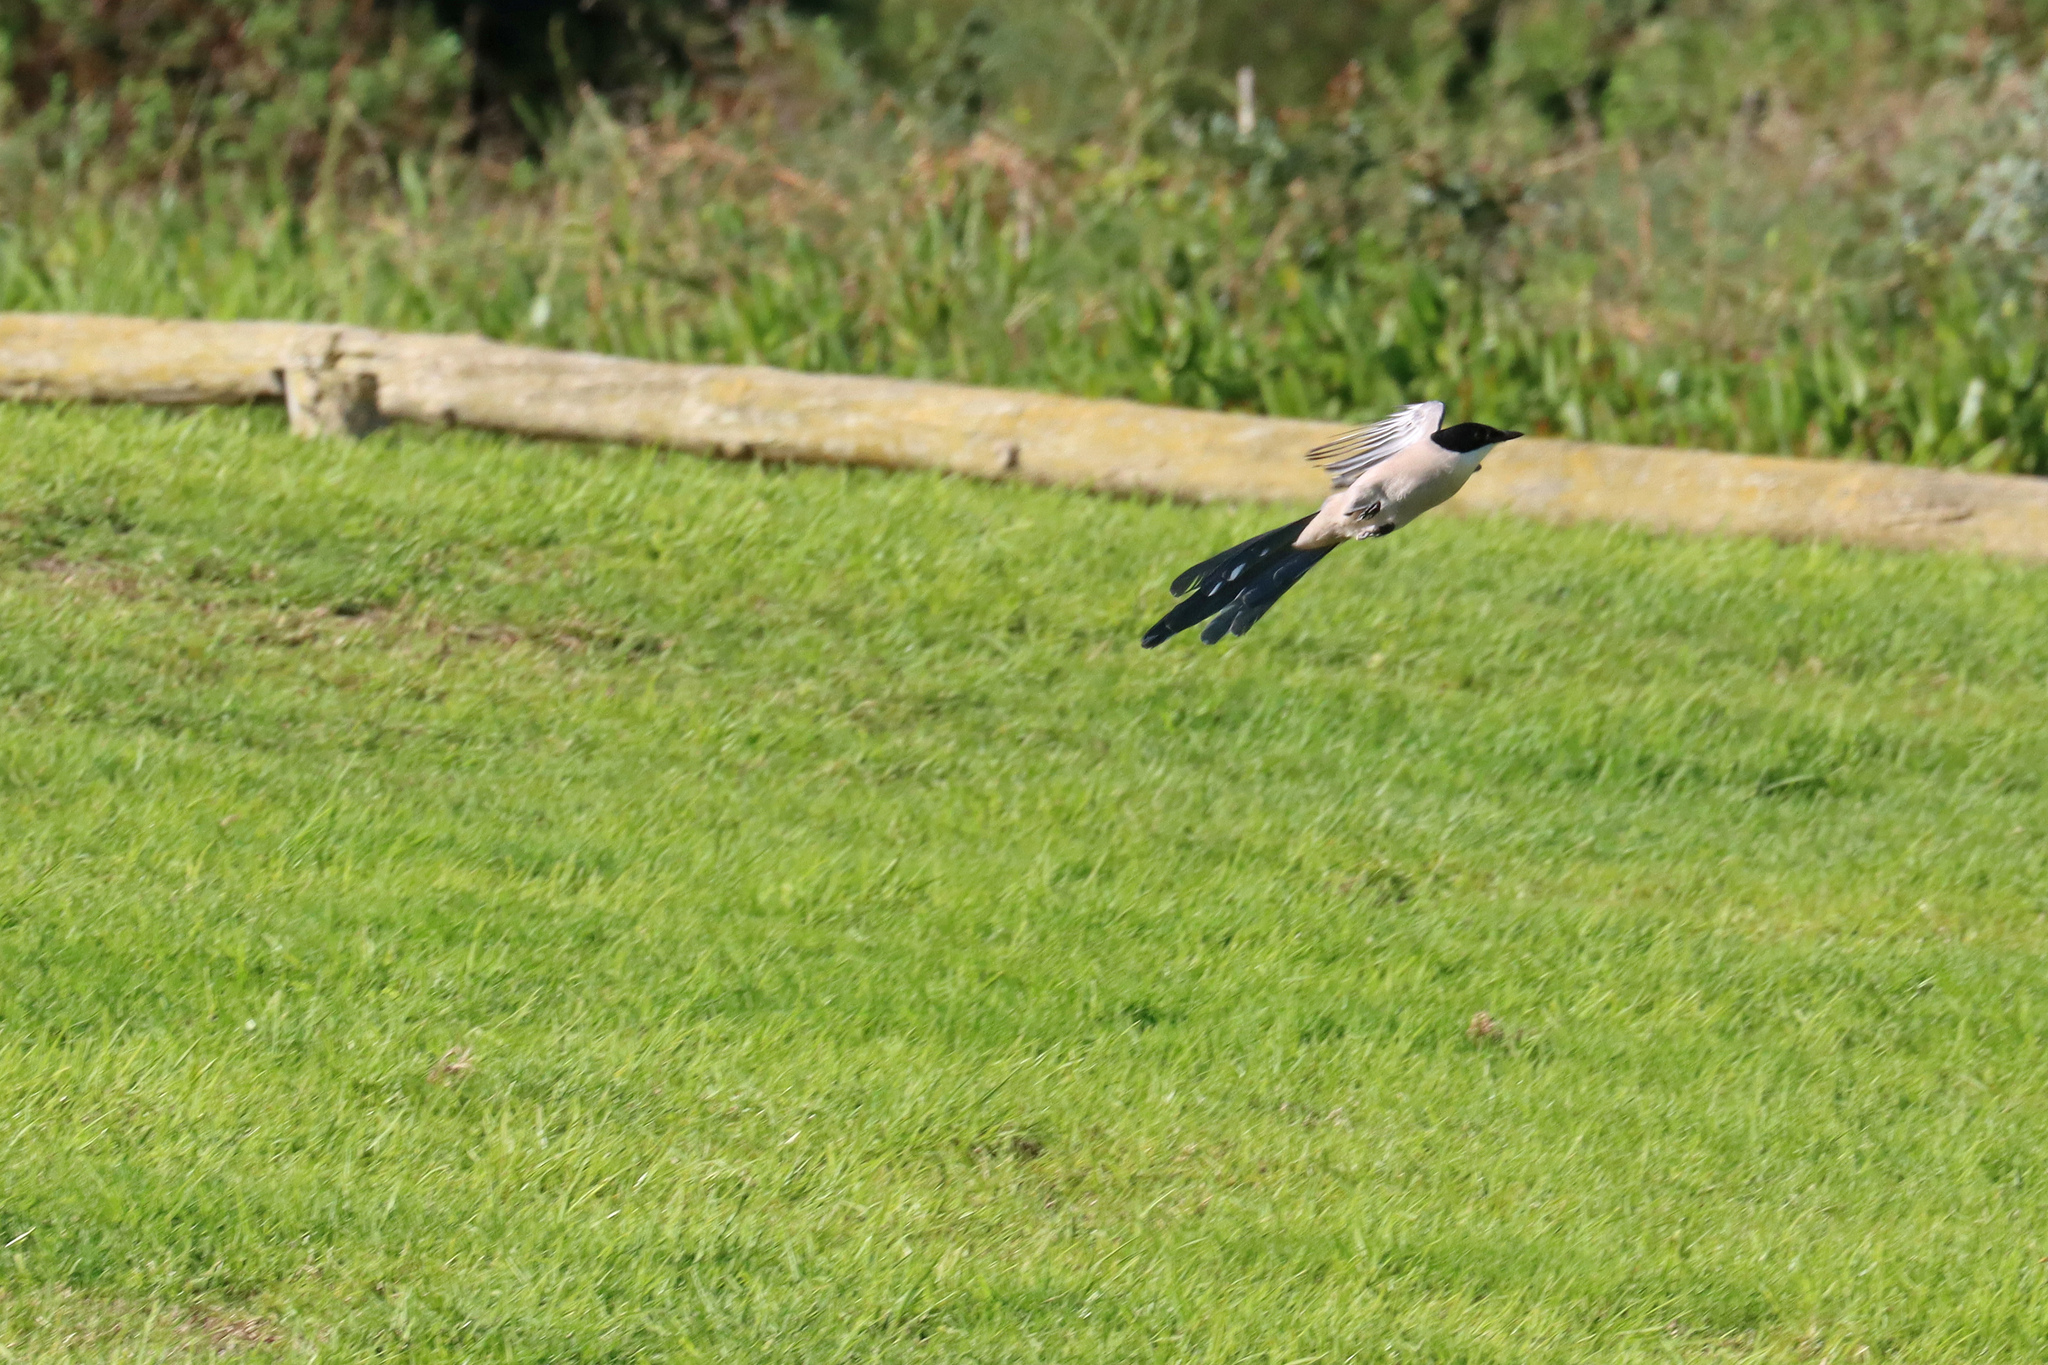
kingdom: Animalia
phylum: Chordata
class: Aves
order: Passeriformes
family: Corvidae
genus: Cyanopica
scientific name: Cyanopica cooki
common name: Iberian magpie
